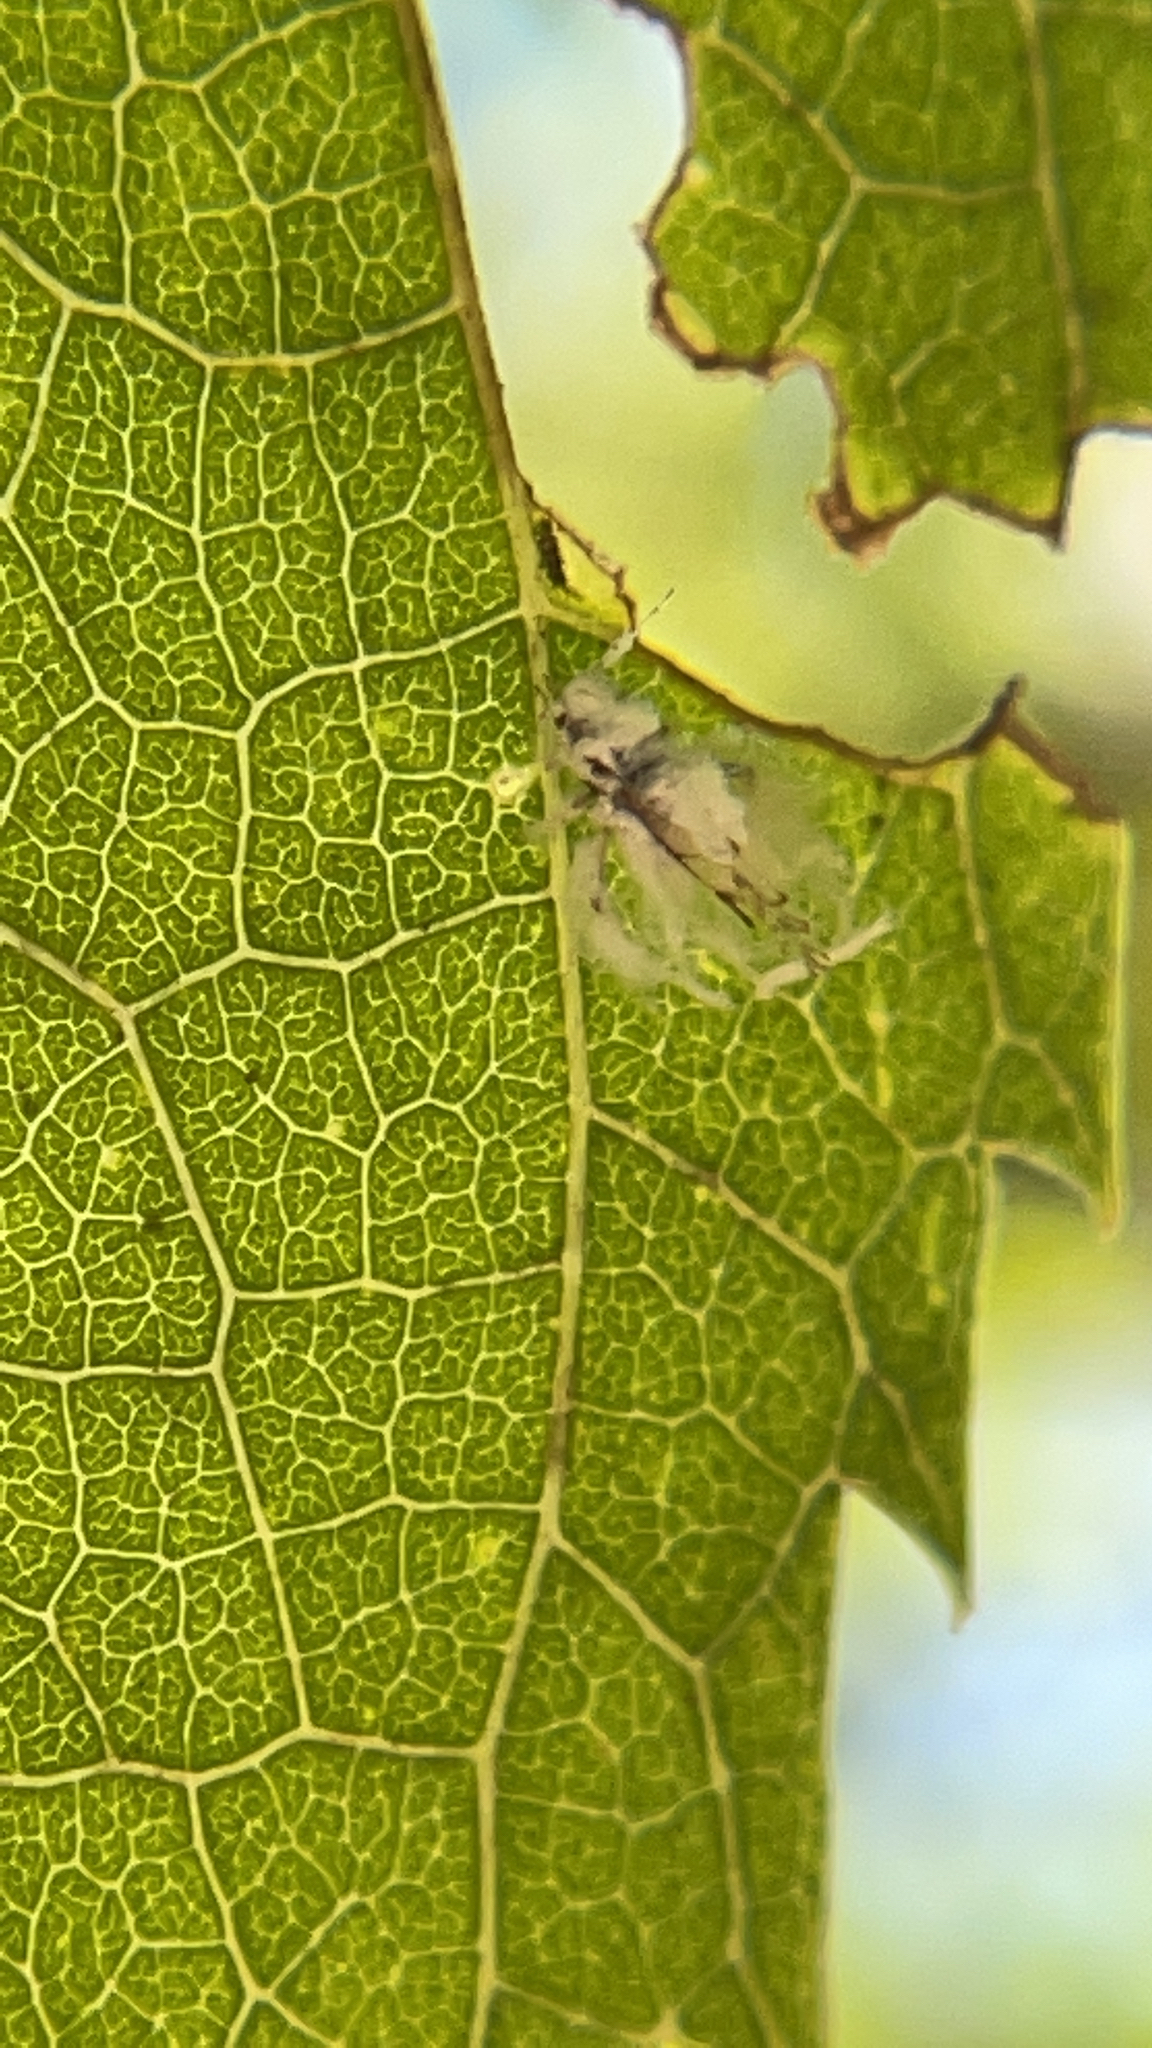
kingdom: Animalia
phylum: Arthropoda
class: Insecta
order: Hemiptera
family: Aphididae
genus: Shivaphis
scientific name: Shivaphis celti
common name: Asian wooly hackberry aphid
